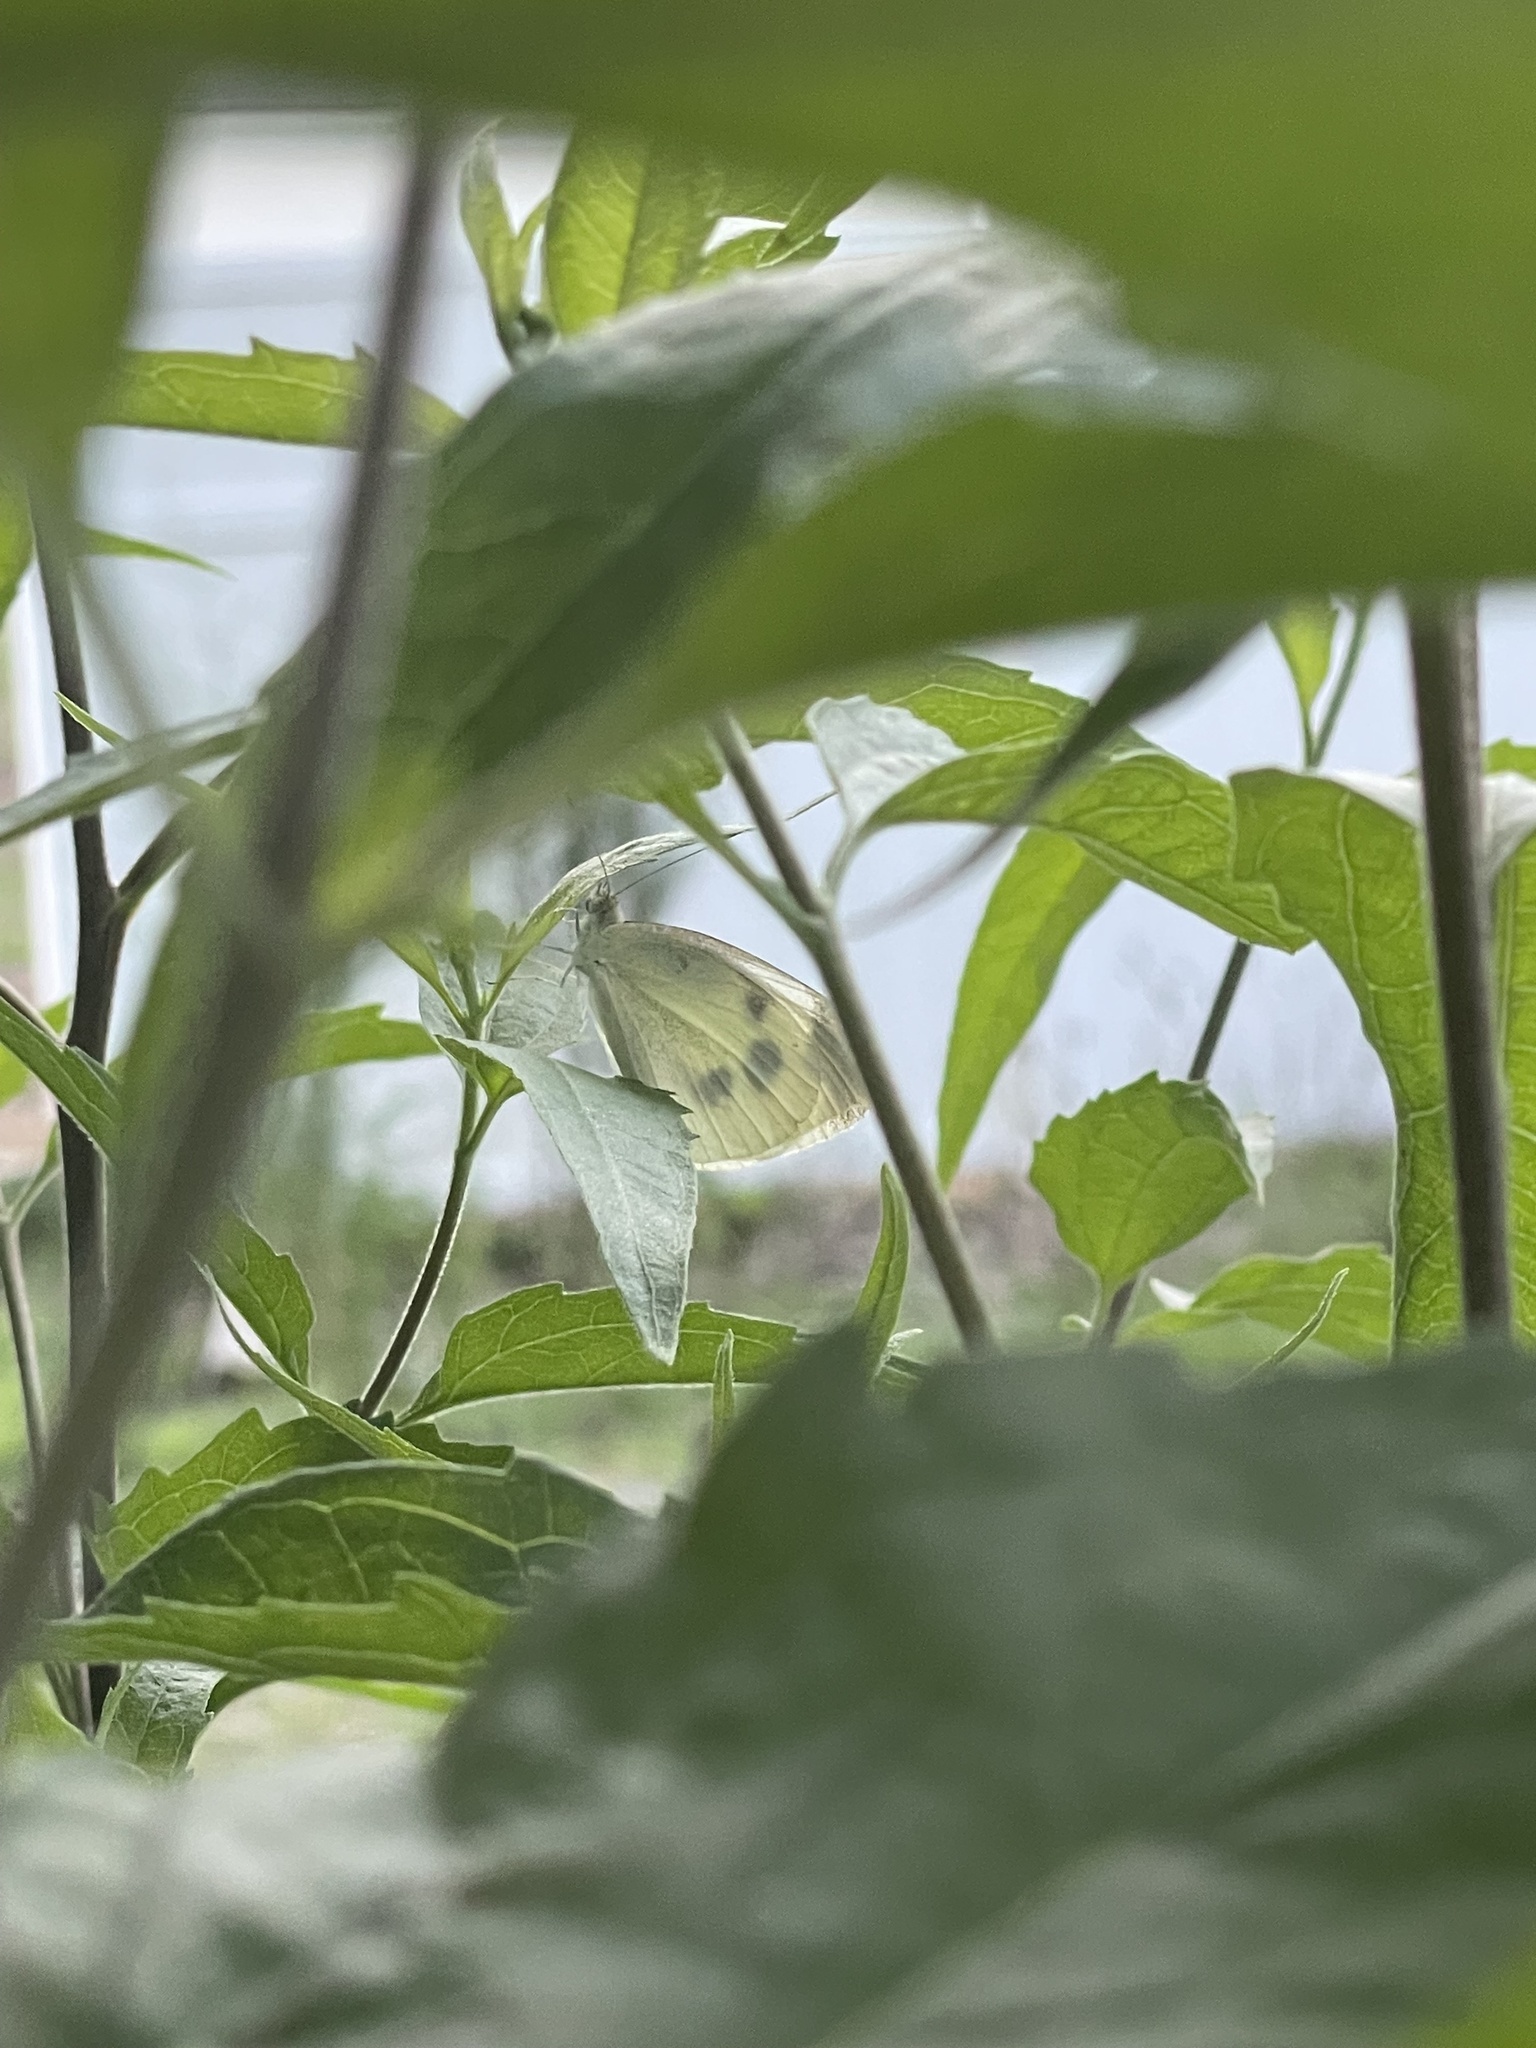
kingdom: Animalia
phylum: Arthropoda
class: Insecta
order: Lepidoptera
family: Pieridae
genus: Pieris
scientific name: Pieris rapae
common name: Small white
